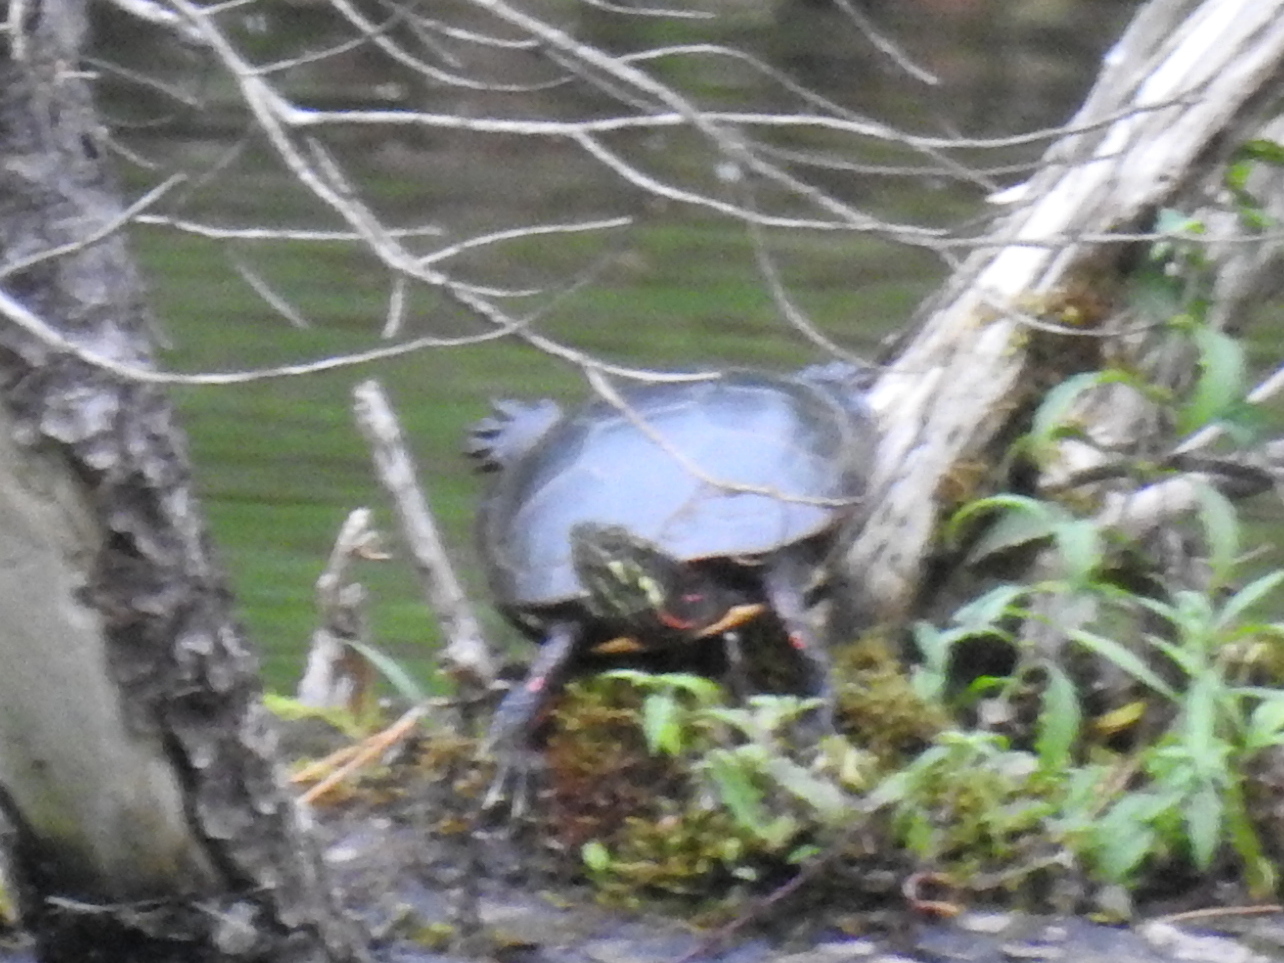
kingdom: Animalia
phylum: Chordata
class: Testudines
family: Emydidae
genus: Chrysemys
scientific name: Chrysemys picta
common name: Painted turtle
